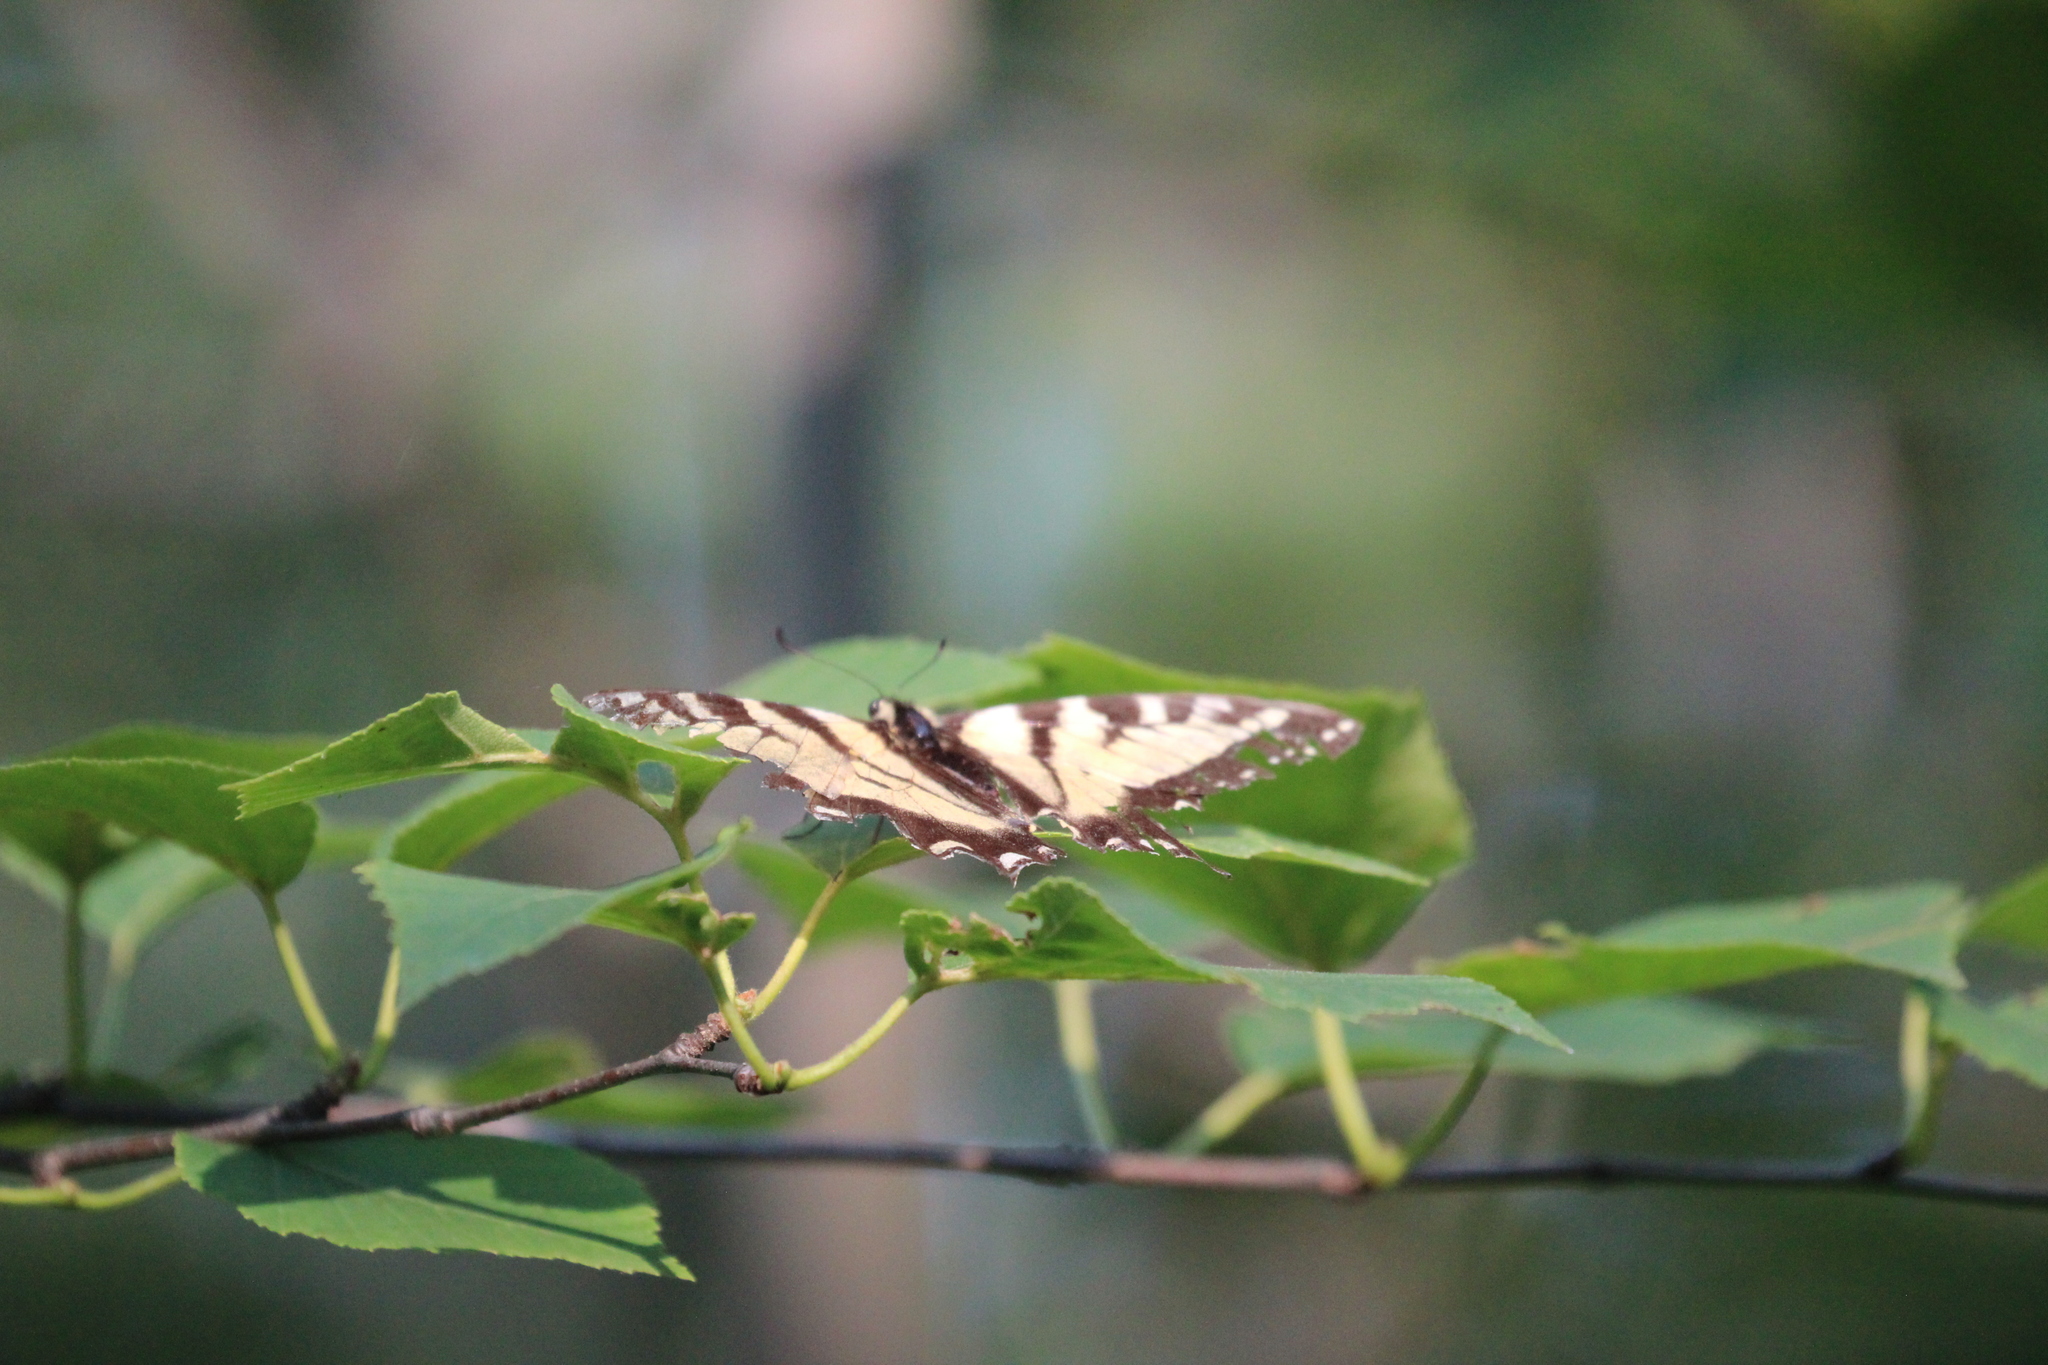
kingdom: Animalia
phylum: Arthropoda
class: Insecta
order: Lepidoptera
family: Papilionidae
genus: Papilio
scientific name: Papilio canadensis
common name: Canadian tiger swallowtail
